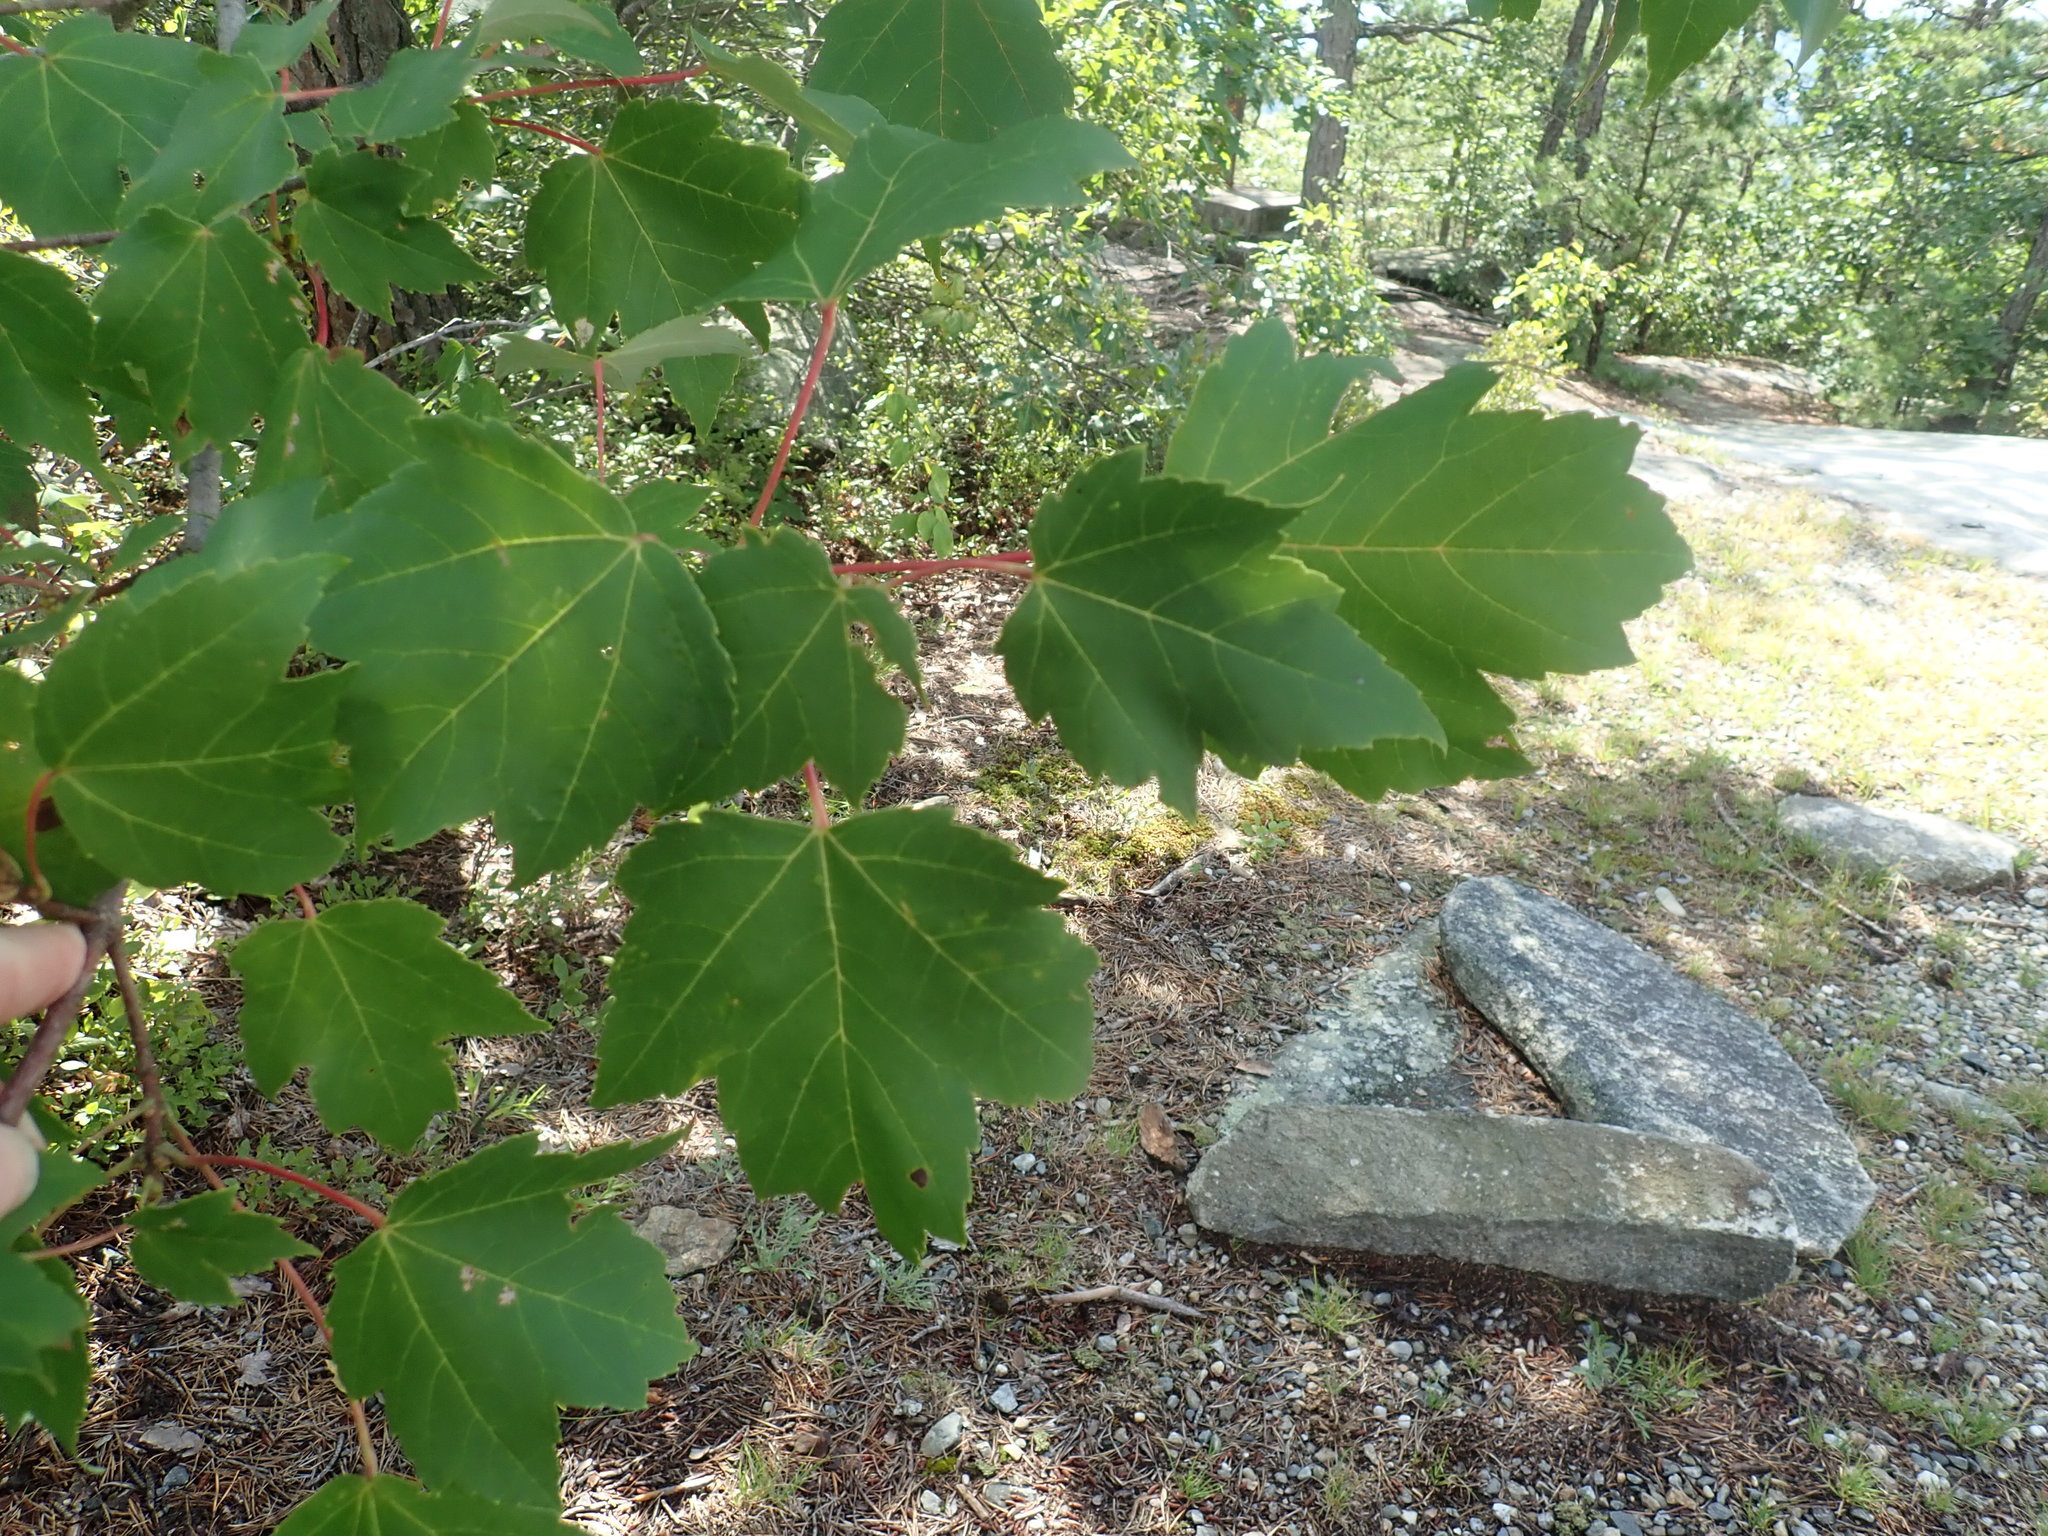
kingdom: Plantae
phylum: Tracheophyta
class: Magnoliopsida
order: Sapindales
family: Sapindaceae
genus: Acer
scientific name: Acer rubrum
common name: Red maple
